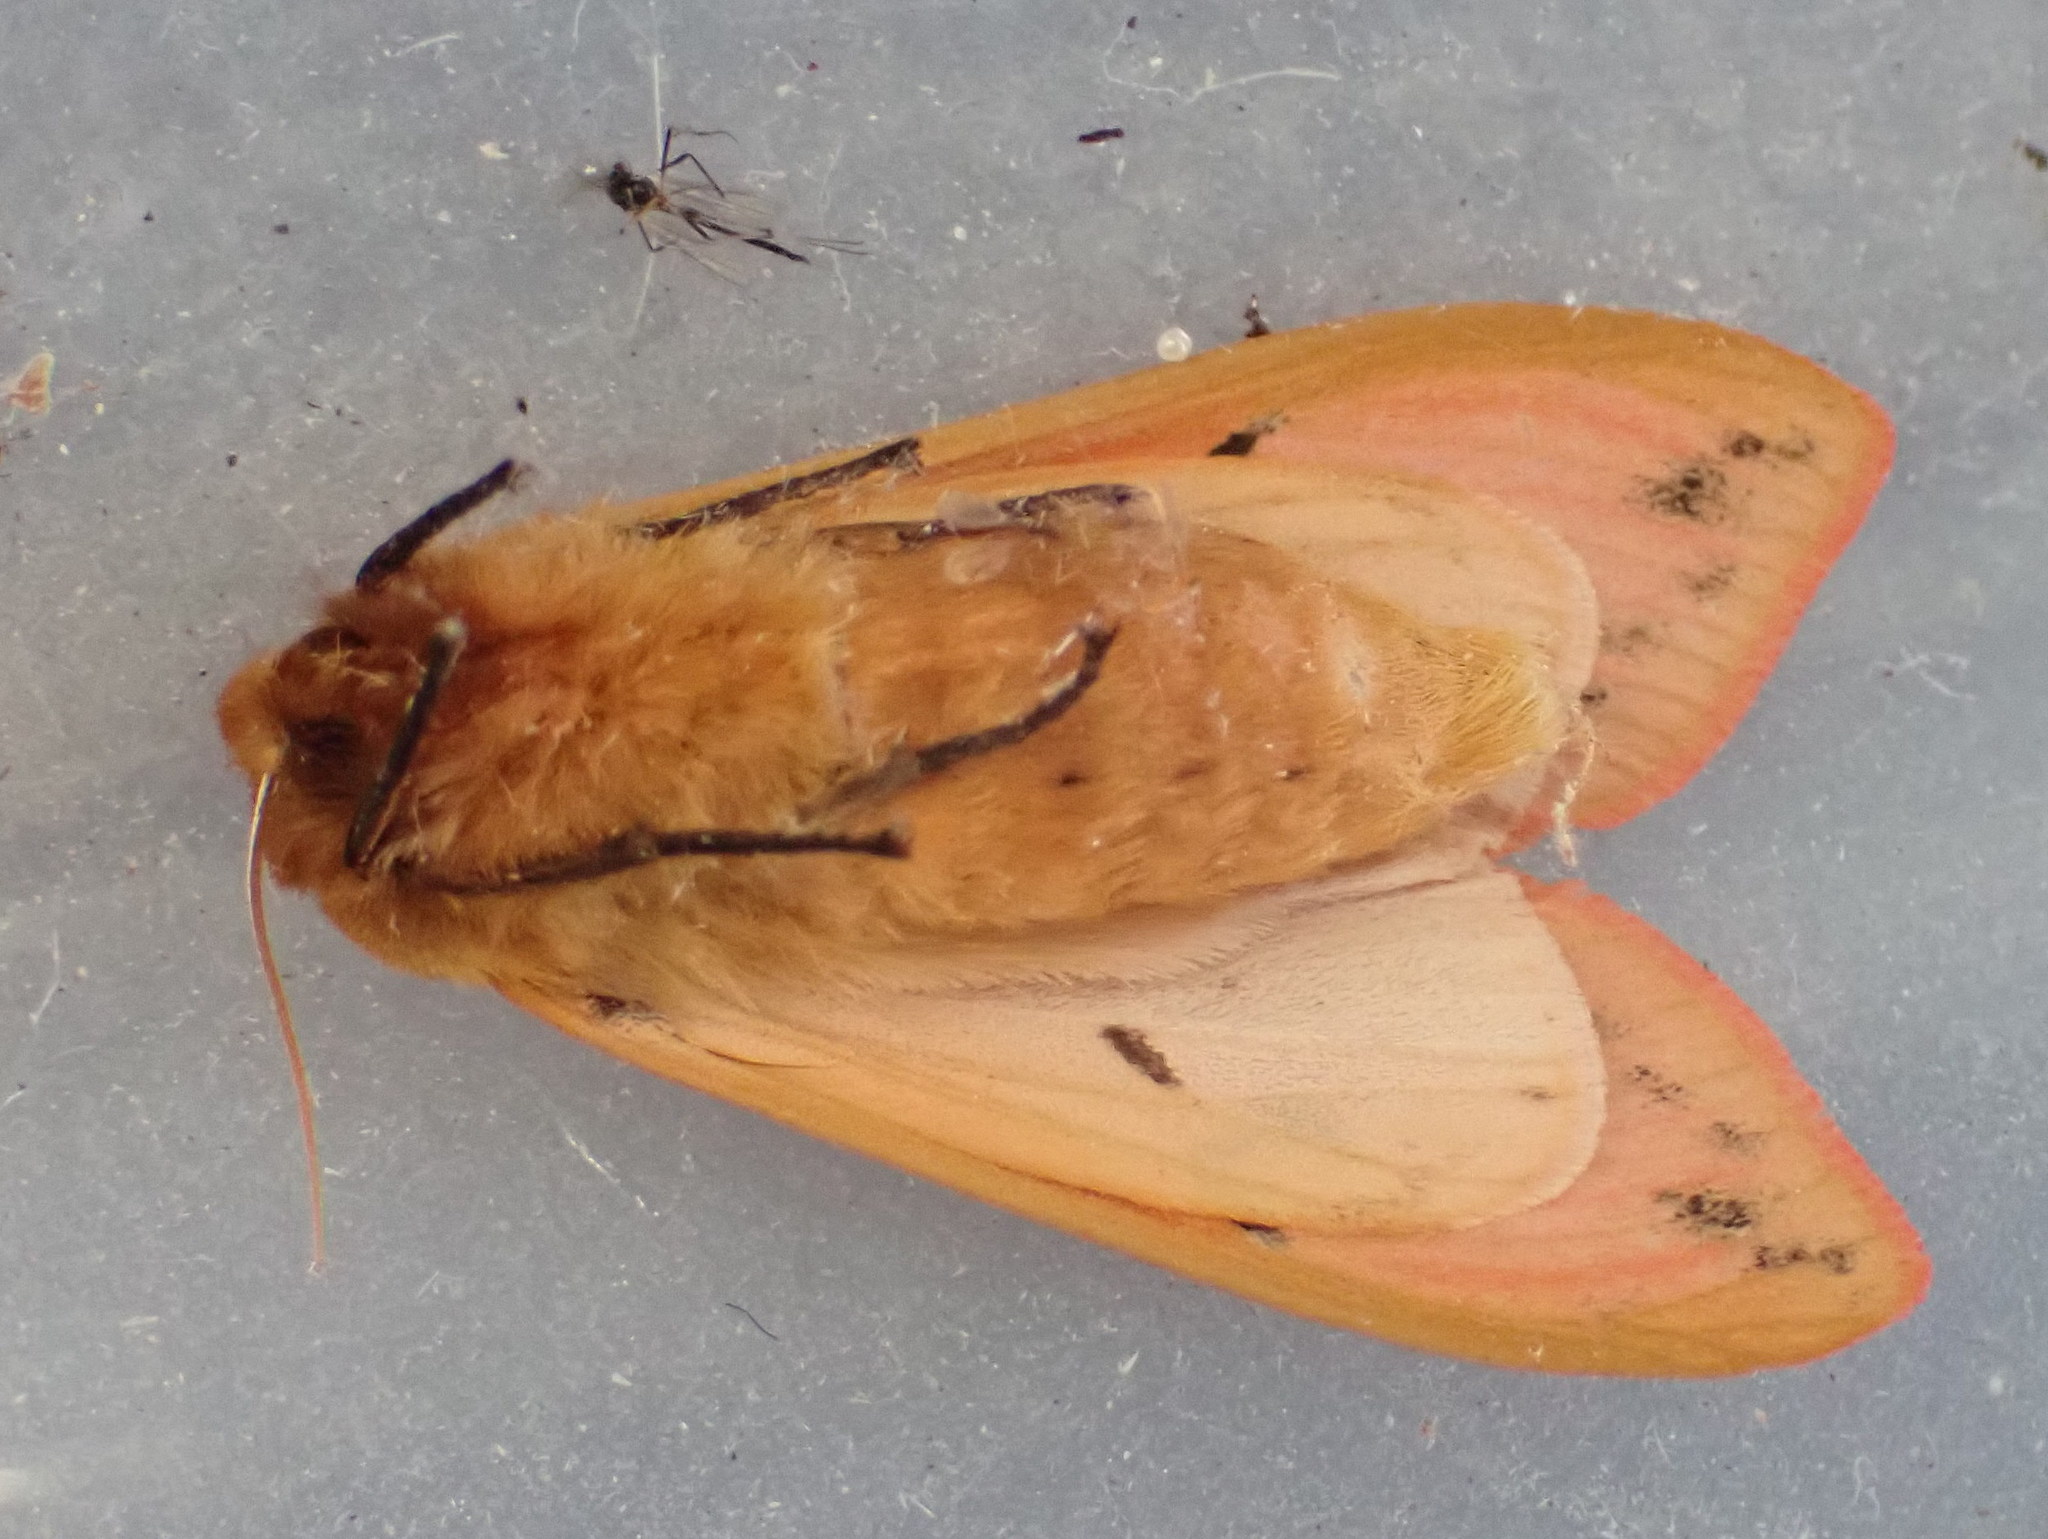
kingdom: Animalia
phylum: Arthropoda
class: Insecta
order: Lepidoptera
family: Erebidae
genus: Pyrrharctia
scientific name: Pyrrharctia isabella
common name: Isabella tiger moth
